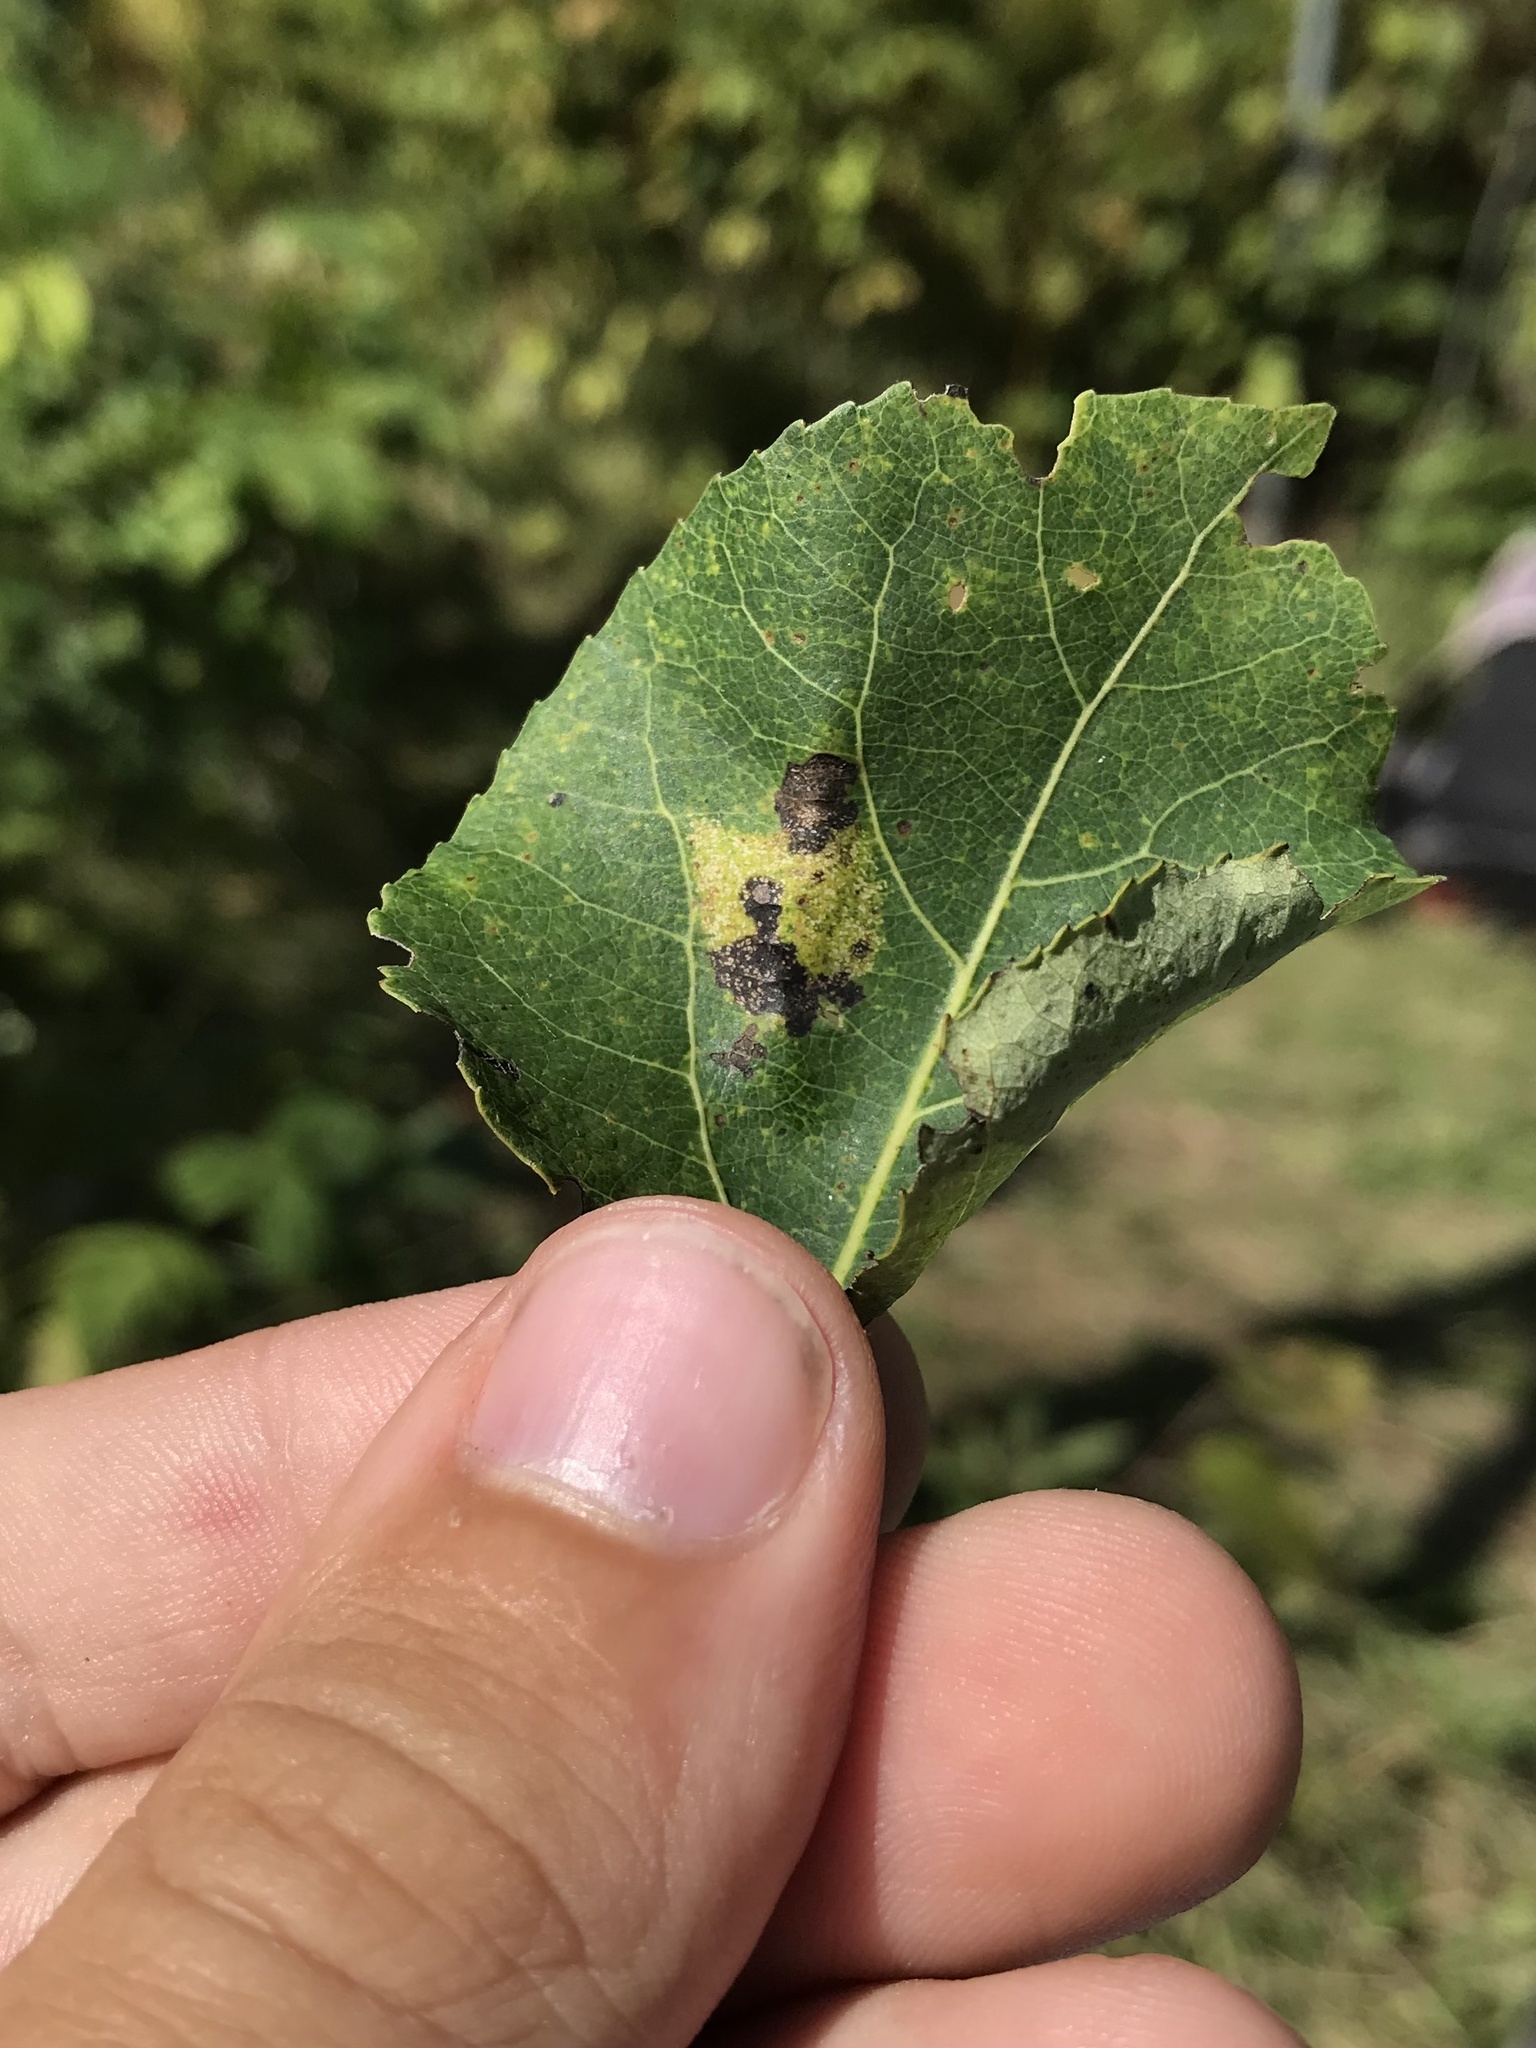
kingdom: Animalia
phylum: Arthropoda
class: Insecta
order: Lepidoptera
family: Gracillariidae
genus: Phyllonorycter
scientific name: Phyllonorycter apparella
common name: Aspen leaf blotch miner
